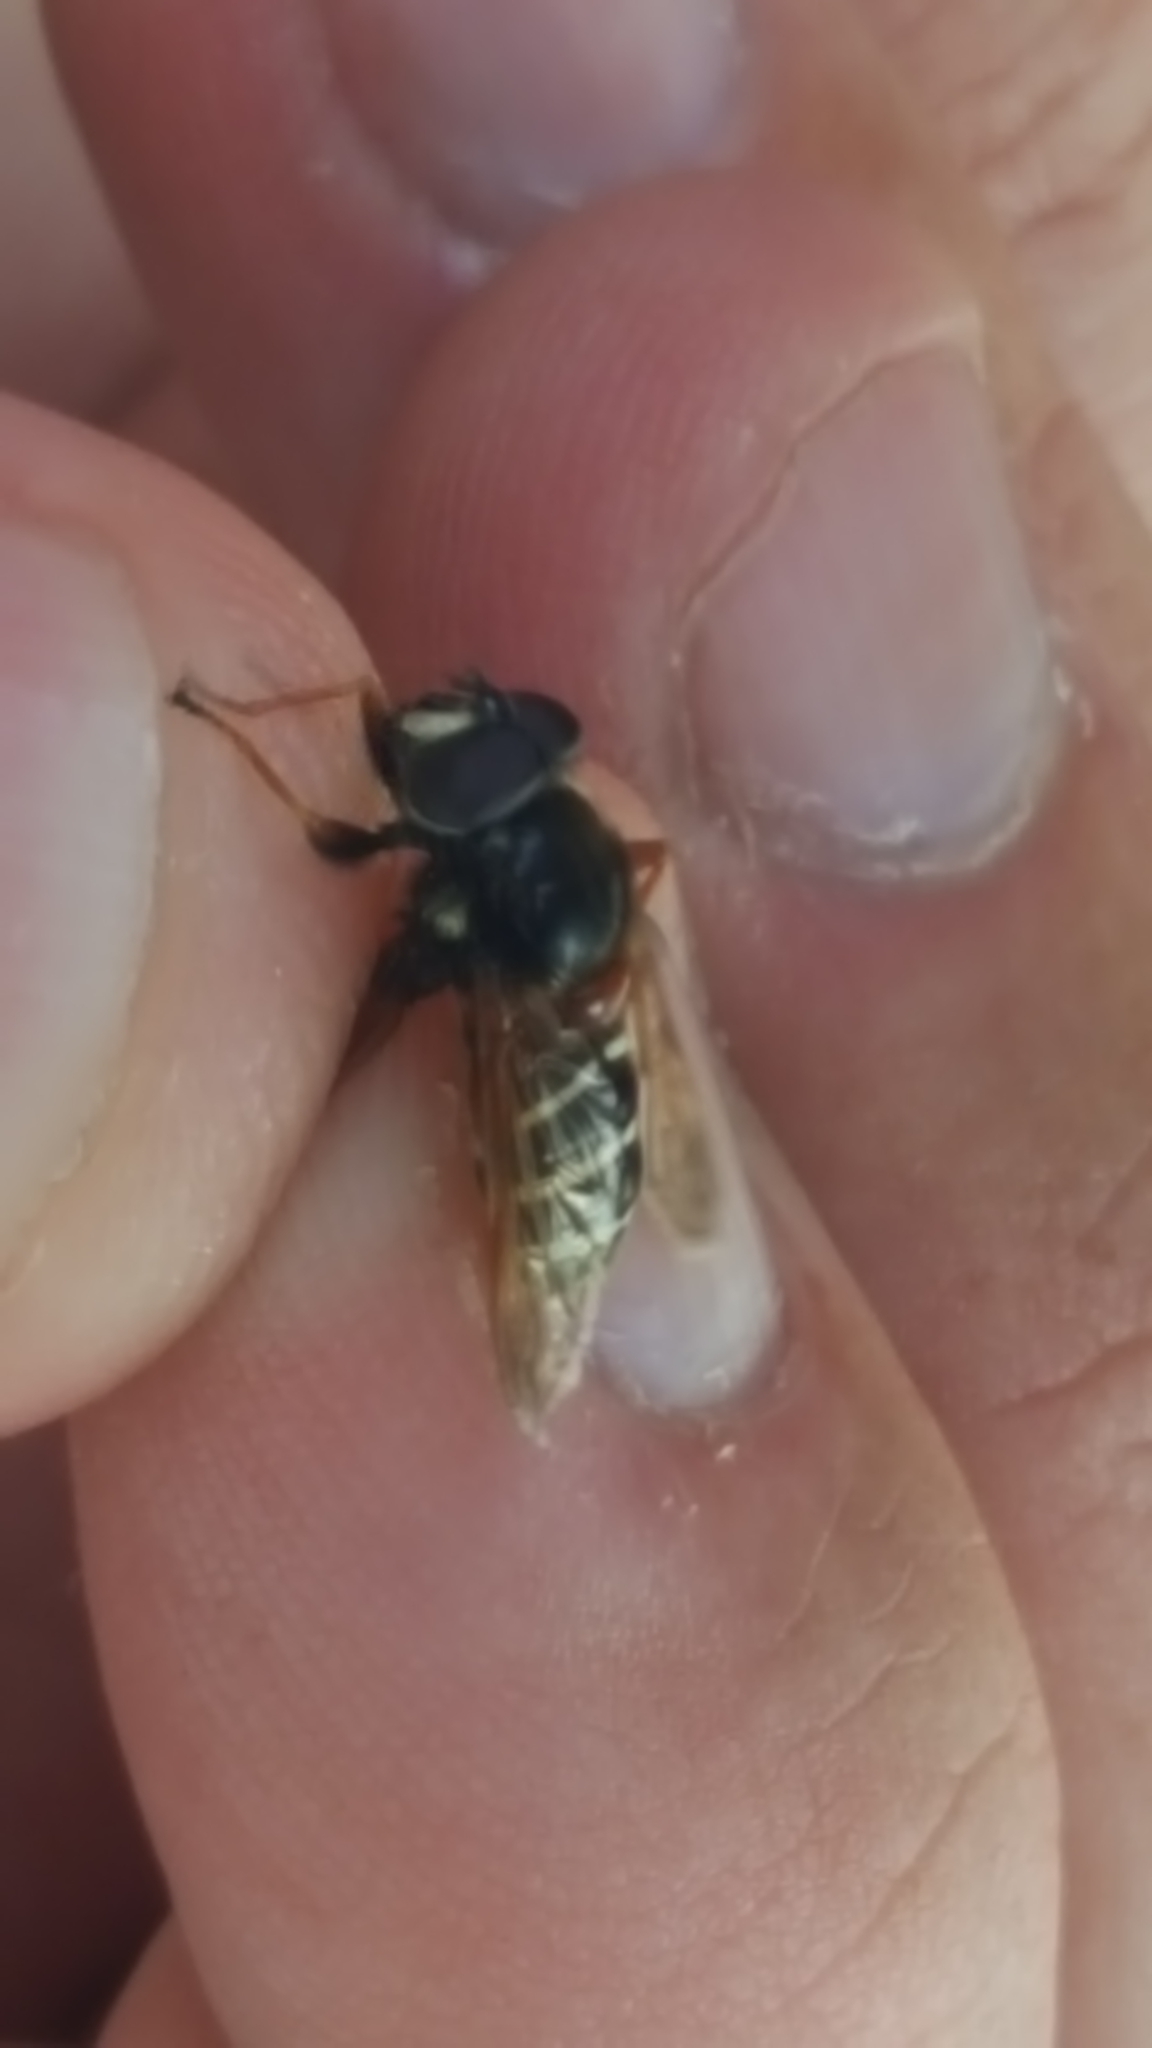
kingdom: Animalia
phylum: Arthropoda
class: Insecta
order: Diptera
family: Syrphidae
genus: Sericomyia
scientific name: Sericomyia lappona
